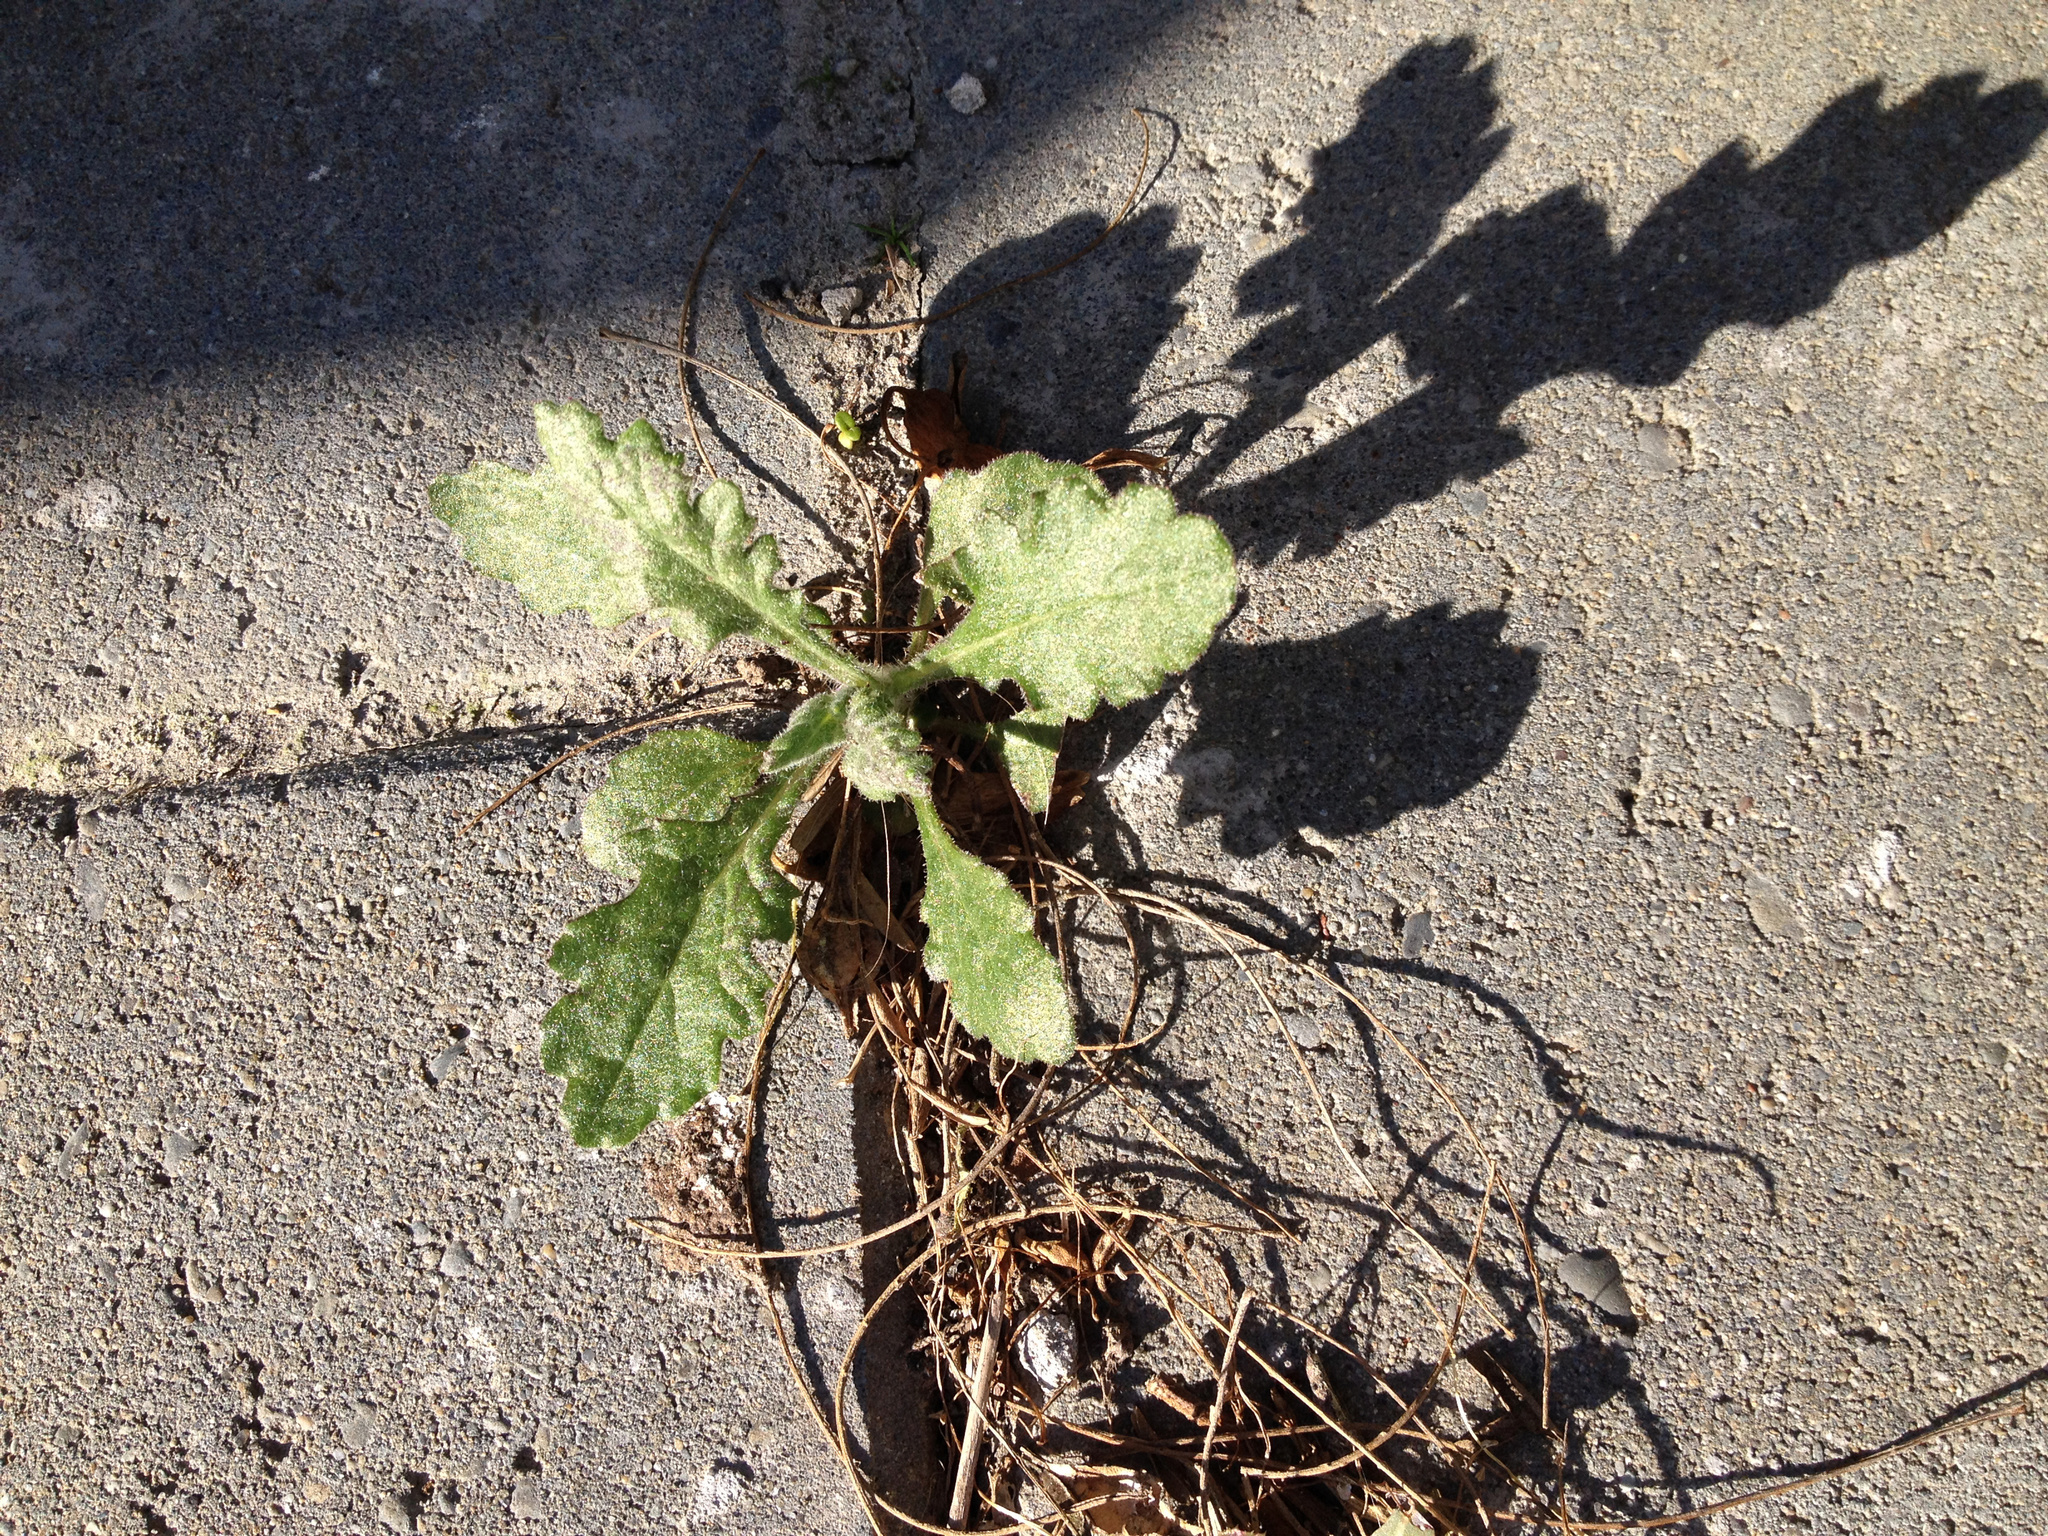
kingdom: Plantae
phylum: Tracheophyta
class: Magnoliopsida
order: Asterales
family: Asteraceae
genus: Senecio
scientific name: Senecio glomeratus
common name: Cutleaf burnweed
